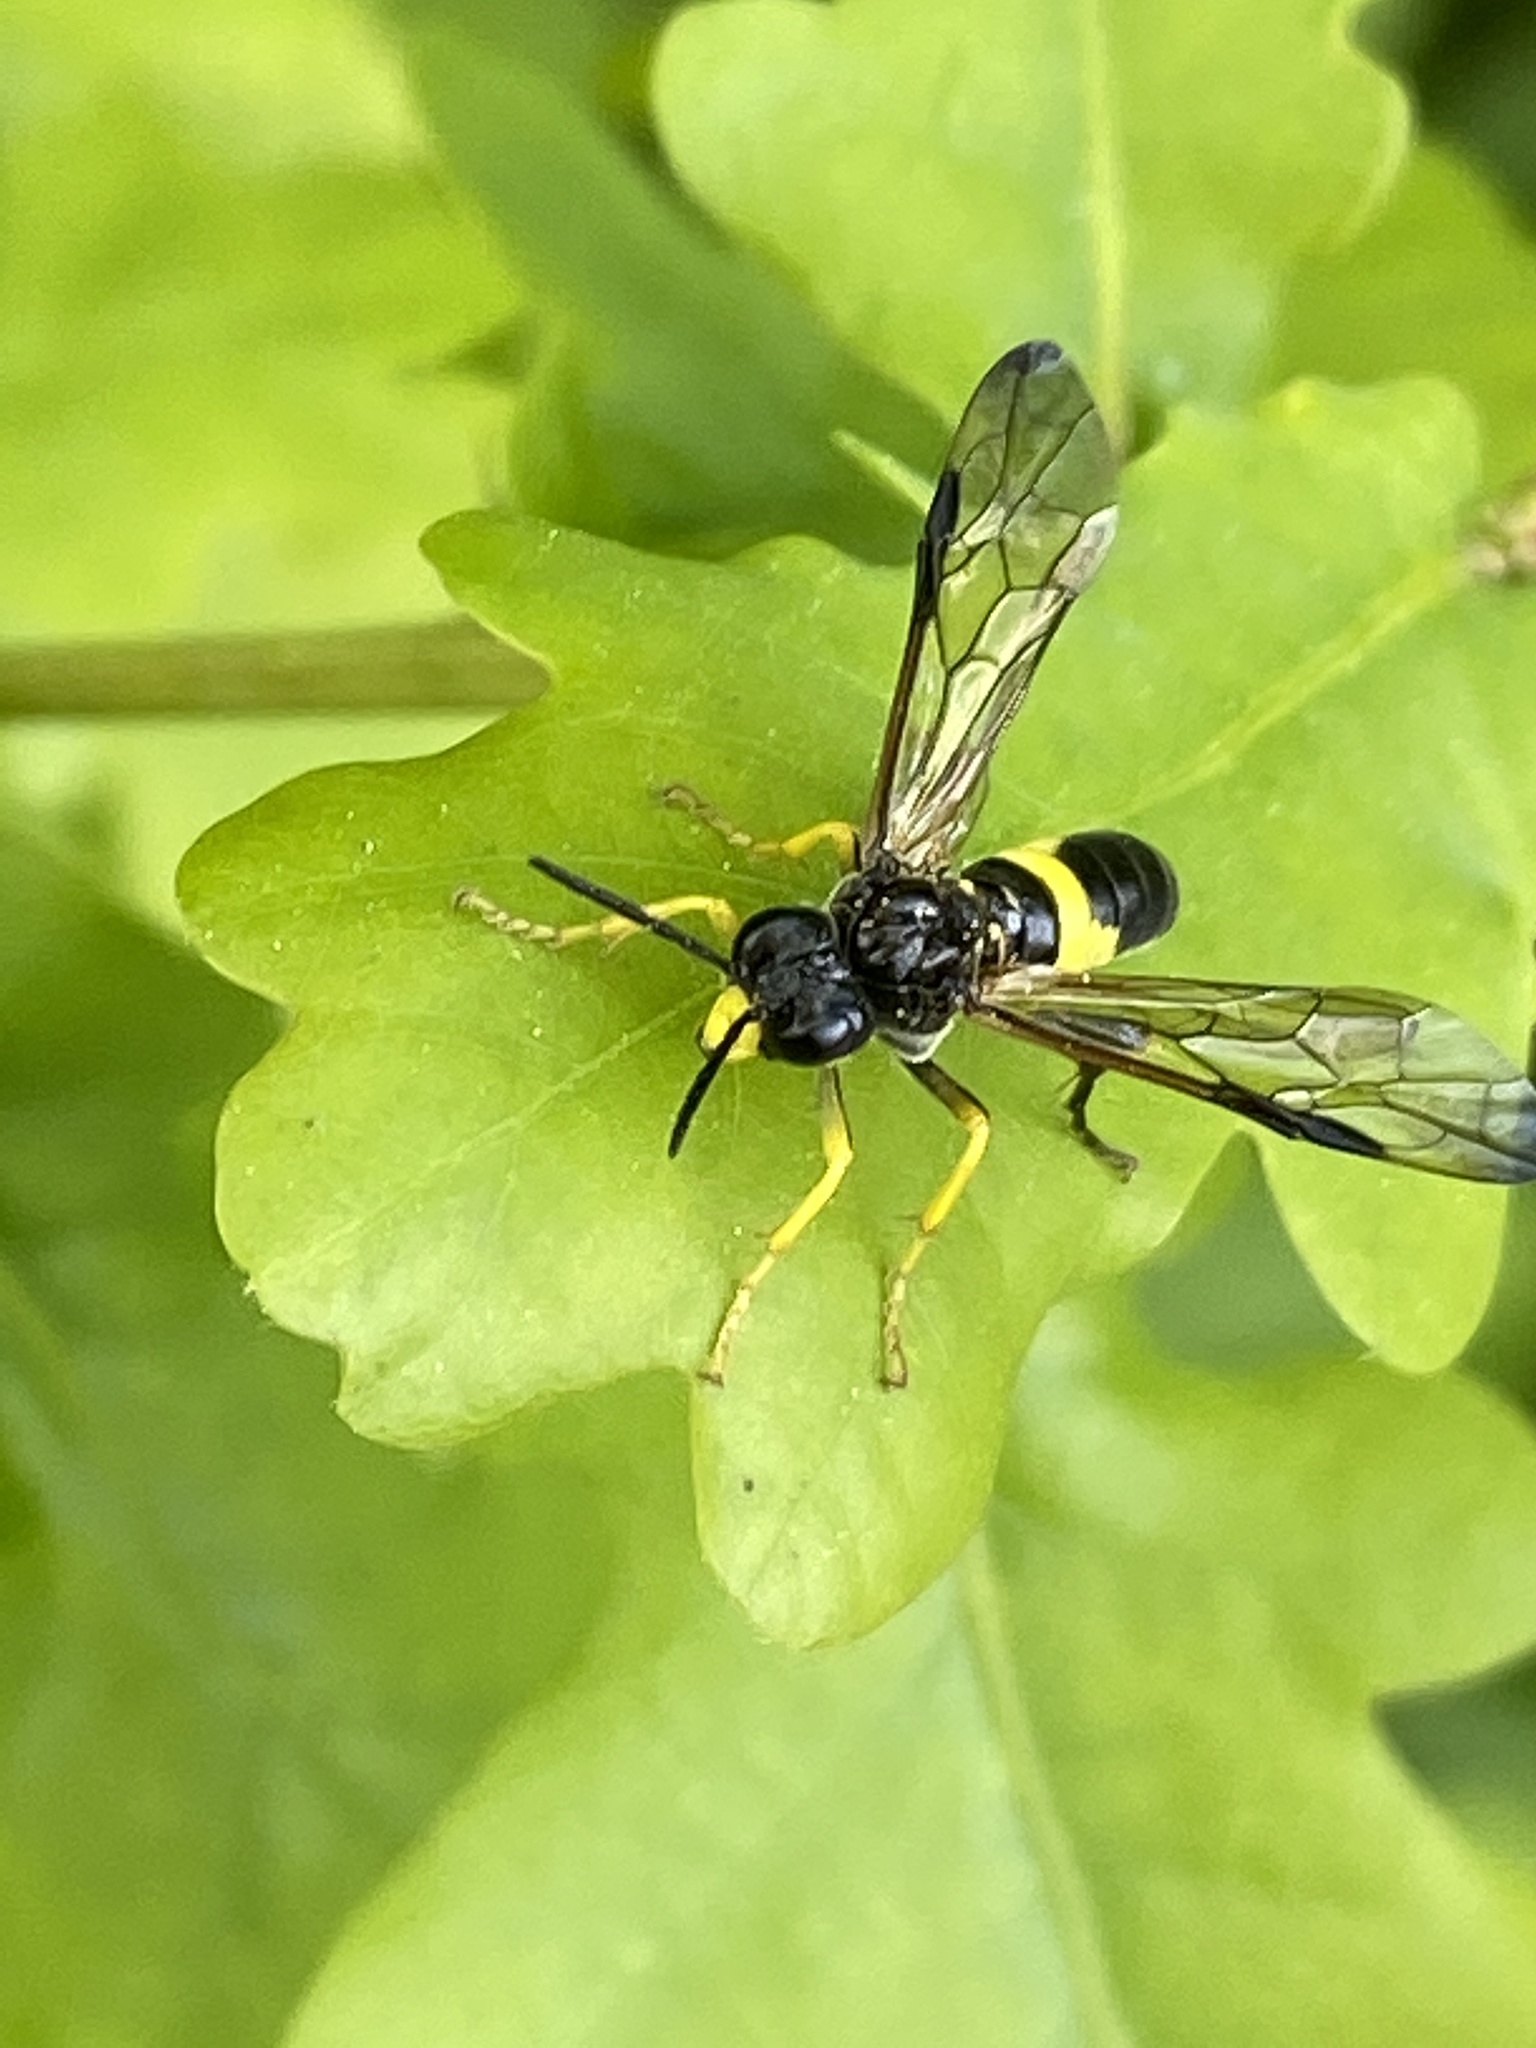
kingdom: Animalia
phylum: Arthropoda
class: Insecta
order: Hymenoptera
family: Tenthredinidae
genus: Tenthredo
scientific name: Tenthredo temula
